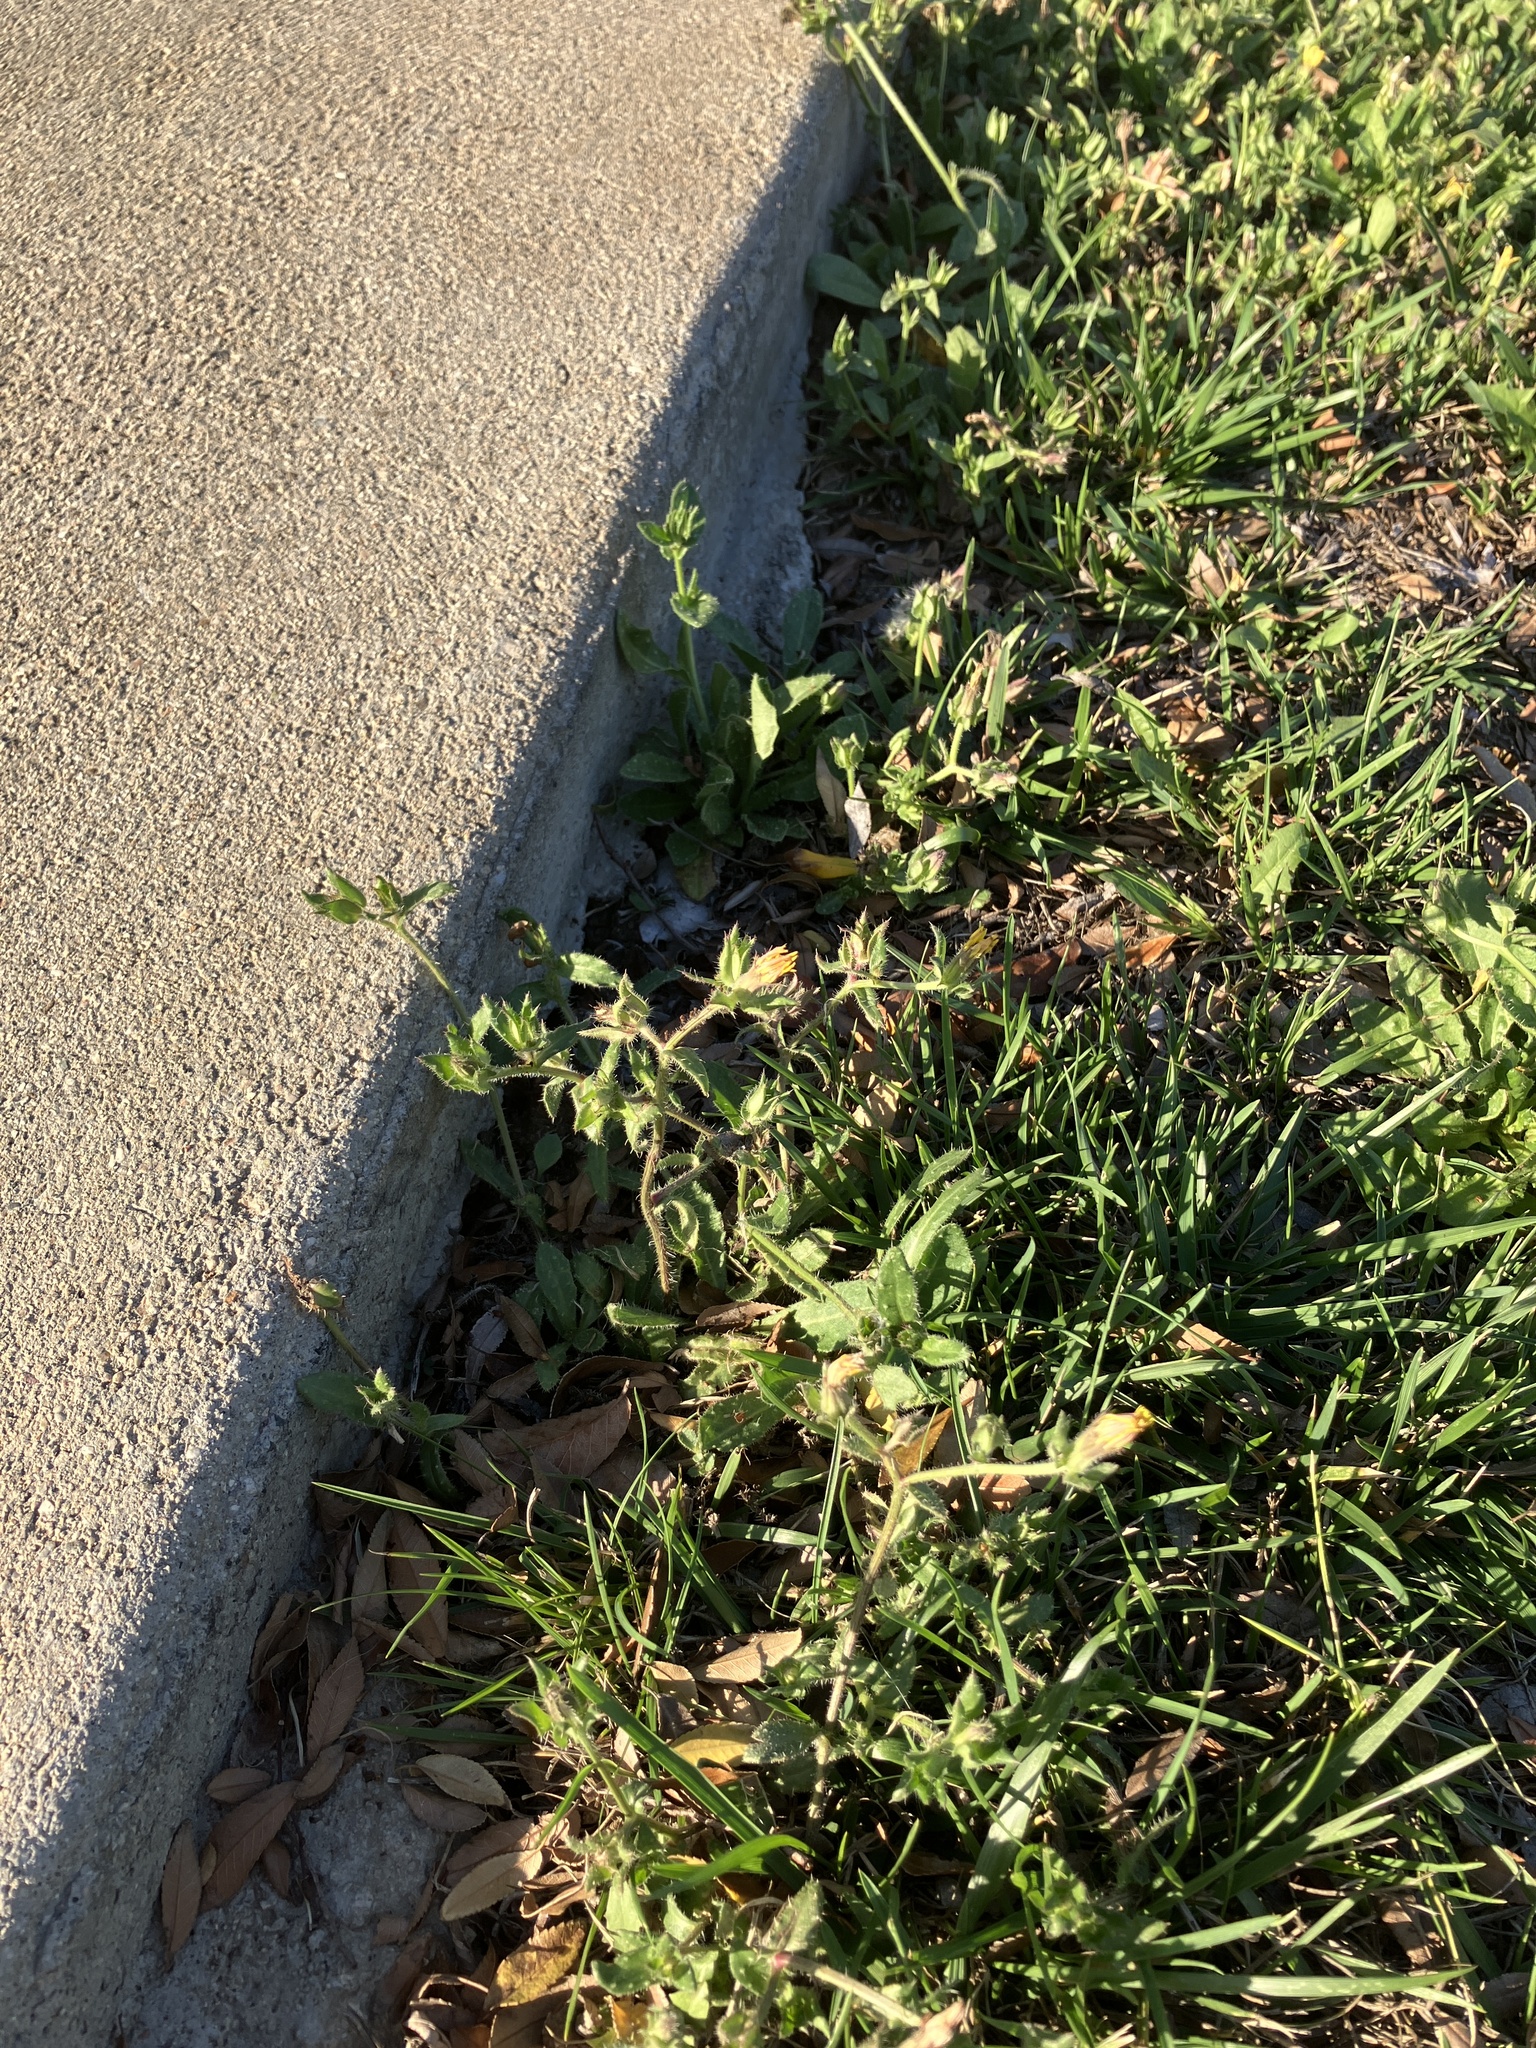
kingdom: Plantae
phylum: Tracheophyta
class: Magnoliopsida
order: Asterales
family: Asteraceae
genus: Helminthotheca
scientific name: Helminthotheca echioides
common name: Ox-tongue
